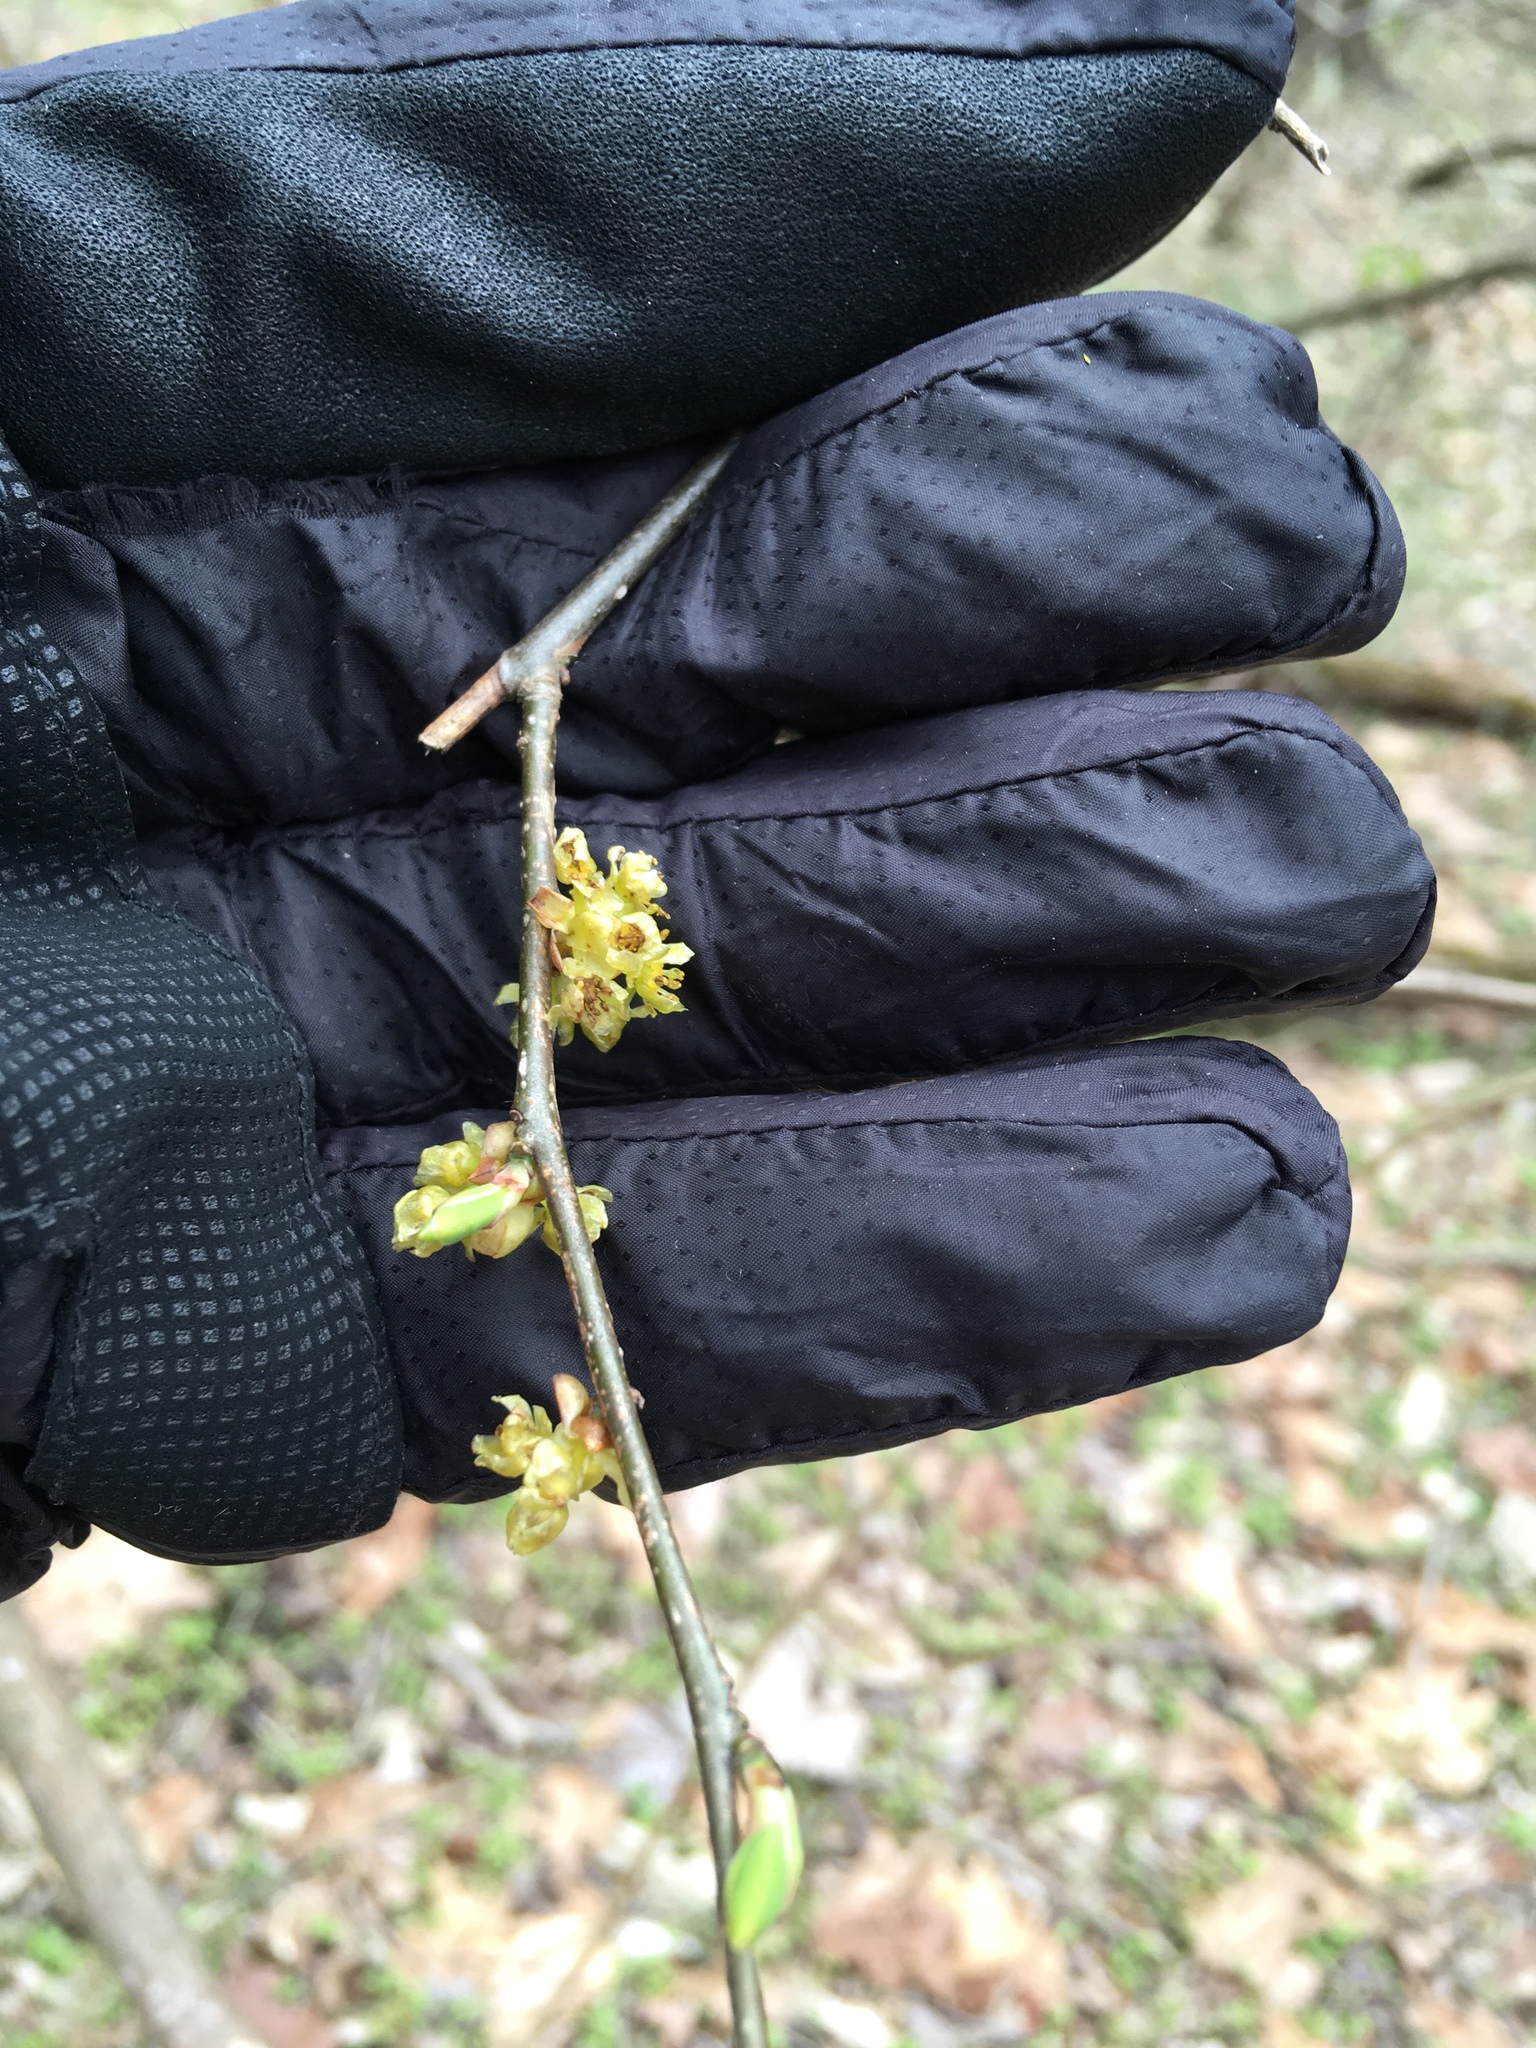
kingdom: Plantae
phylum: Tracheophyta
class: Magnoliopsida
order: Laurales
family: Lauraceae
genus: Lindera
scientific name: Lindera benzoin
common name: Spicebush
